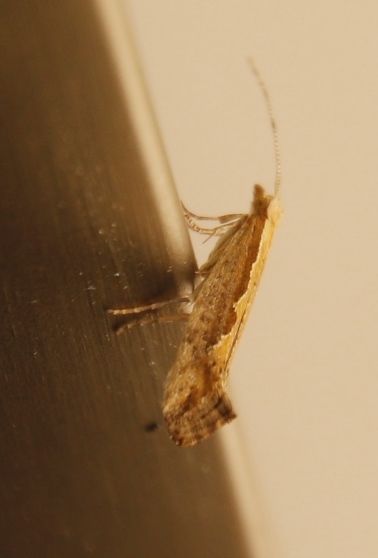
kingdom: Animalia
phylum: Arthropoda
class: Insecta
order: Lepidoptera
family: Plutellidae
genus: Plutella
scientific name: Plutella xylostella
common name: Diamond-back moth
